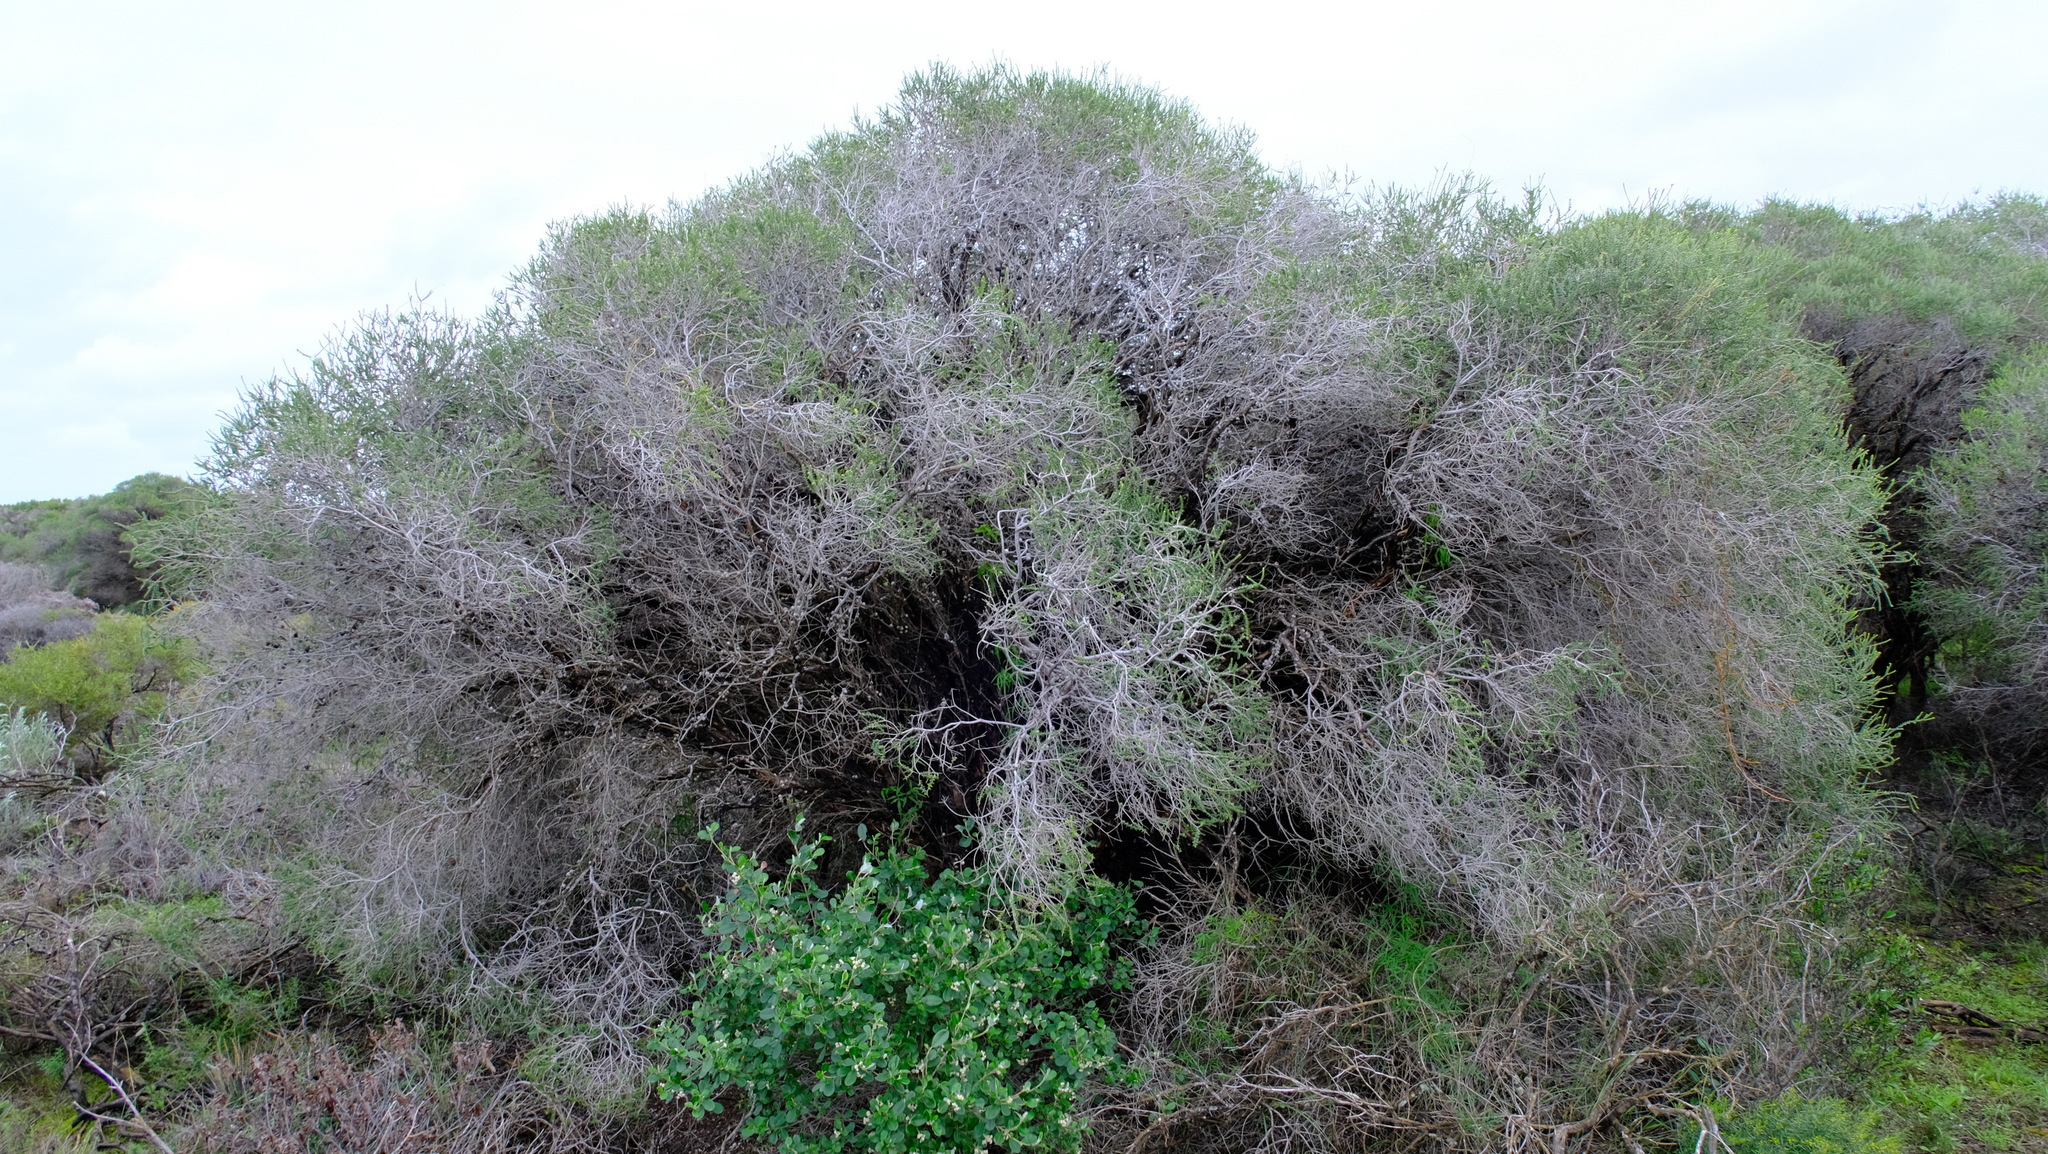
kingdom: Plantae
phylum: Tracheophyta
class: Magnoliopsida
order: Myrtales
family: Myrtaceae
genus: Melaleuca
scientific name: Melaleuca cardiophylla
